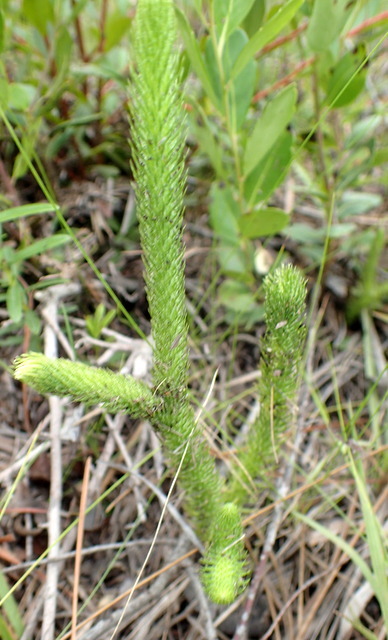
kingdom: Plantae
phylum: Tracheophyta
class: Lycopodiopsida
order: Lycopodiales
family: Lycopodiaceae
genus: Lycopodiella
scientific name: Lycopodiella alopecuroides
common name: Foxtail clubmoss
